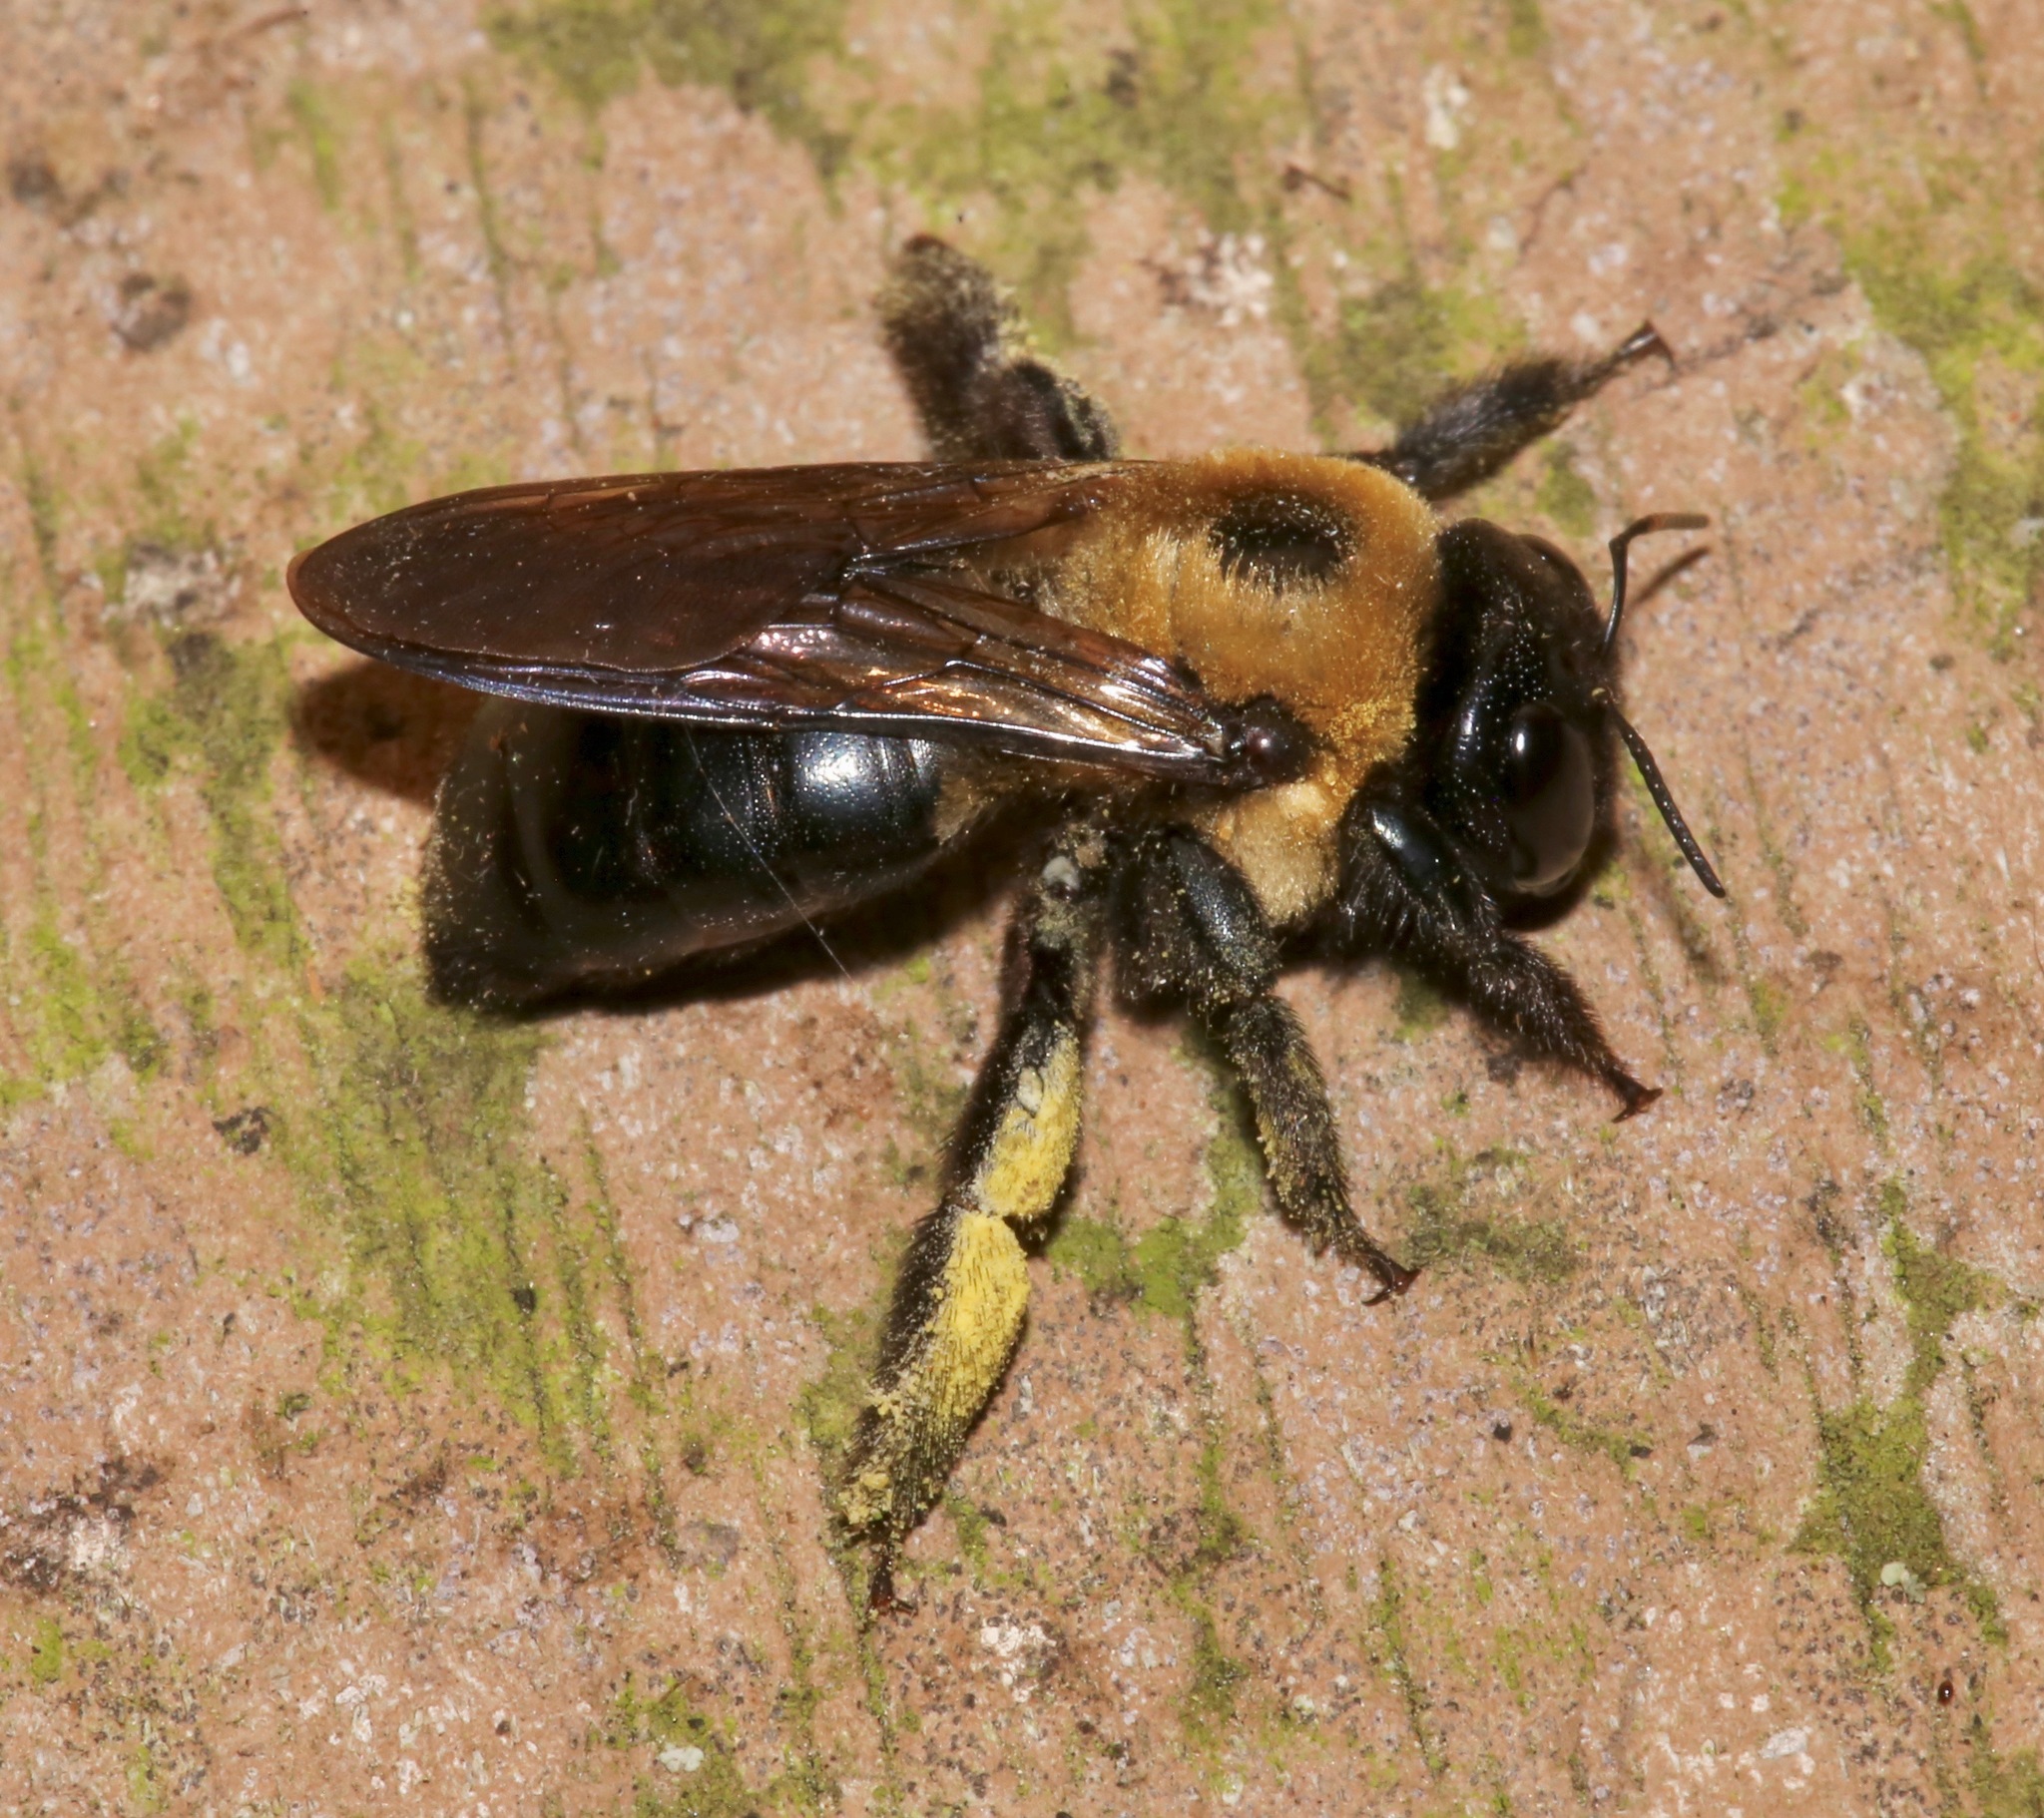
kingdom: Animalia
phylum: Arthropoda
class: Insecta
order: Hymenoptera
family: Apidae
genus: Xylocopa
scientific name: Xylocopa virginica
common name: Carpenter bee
